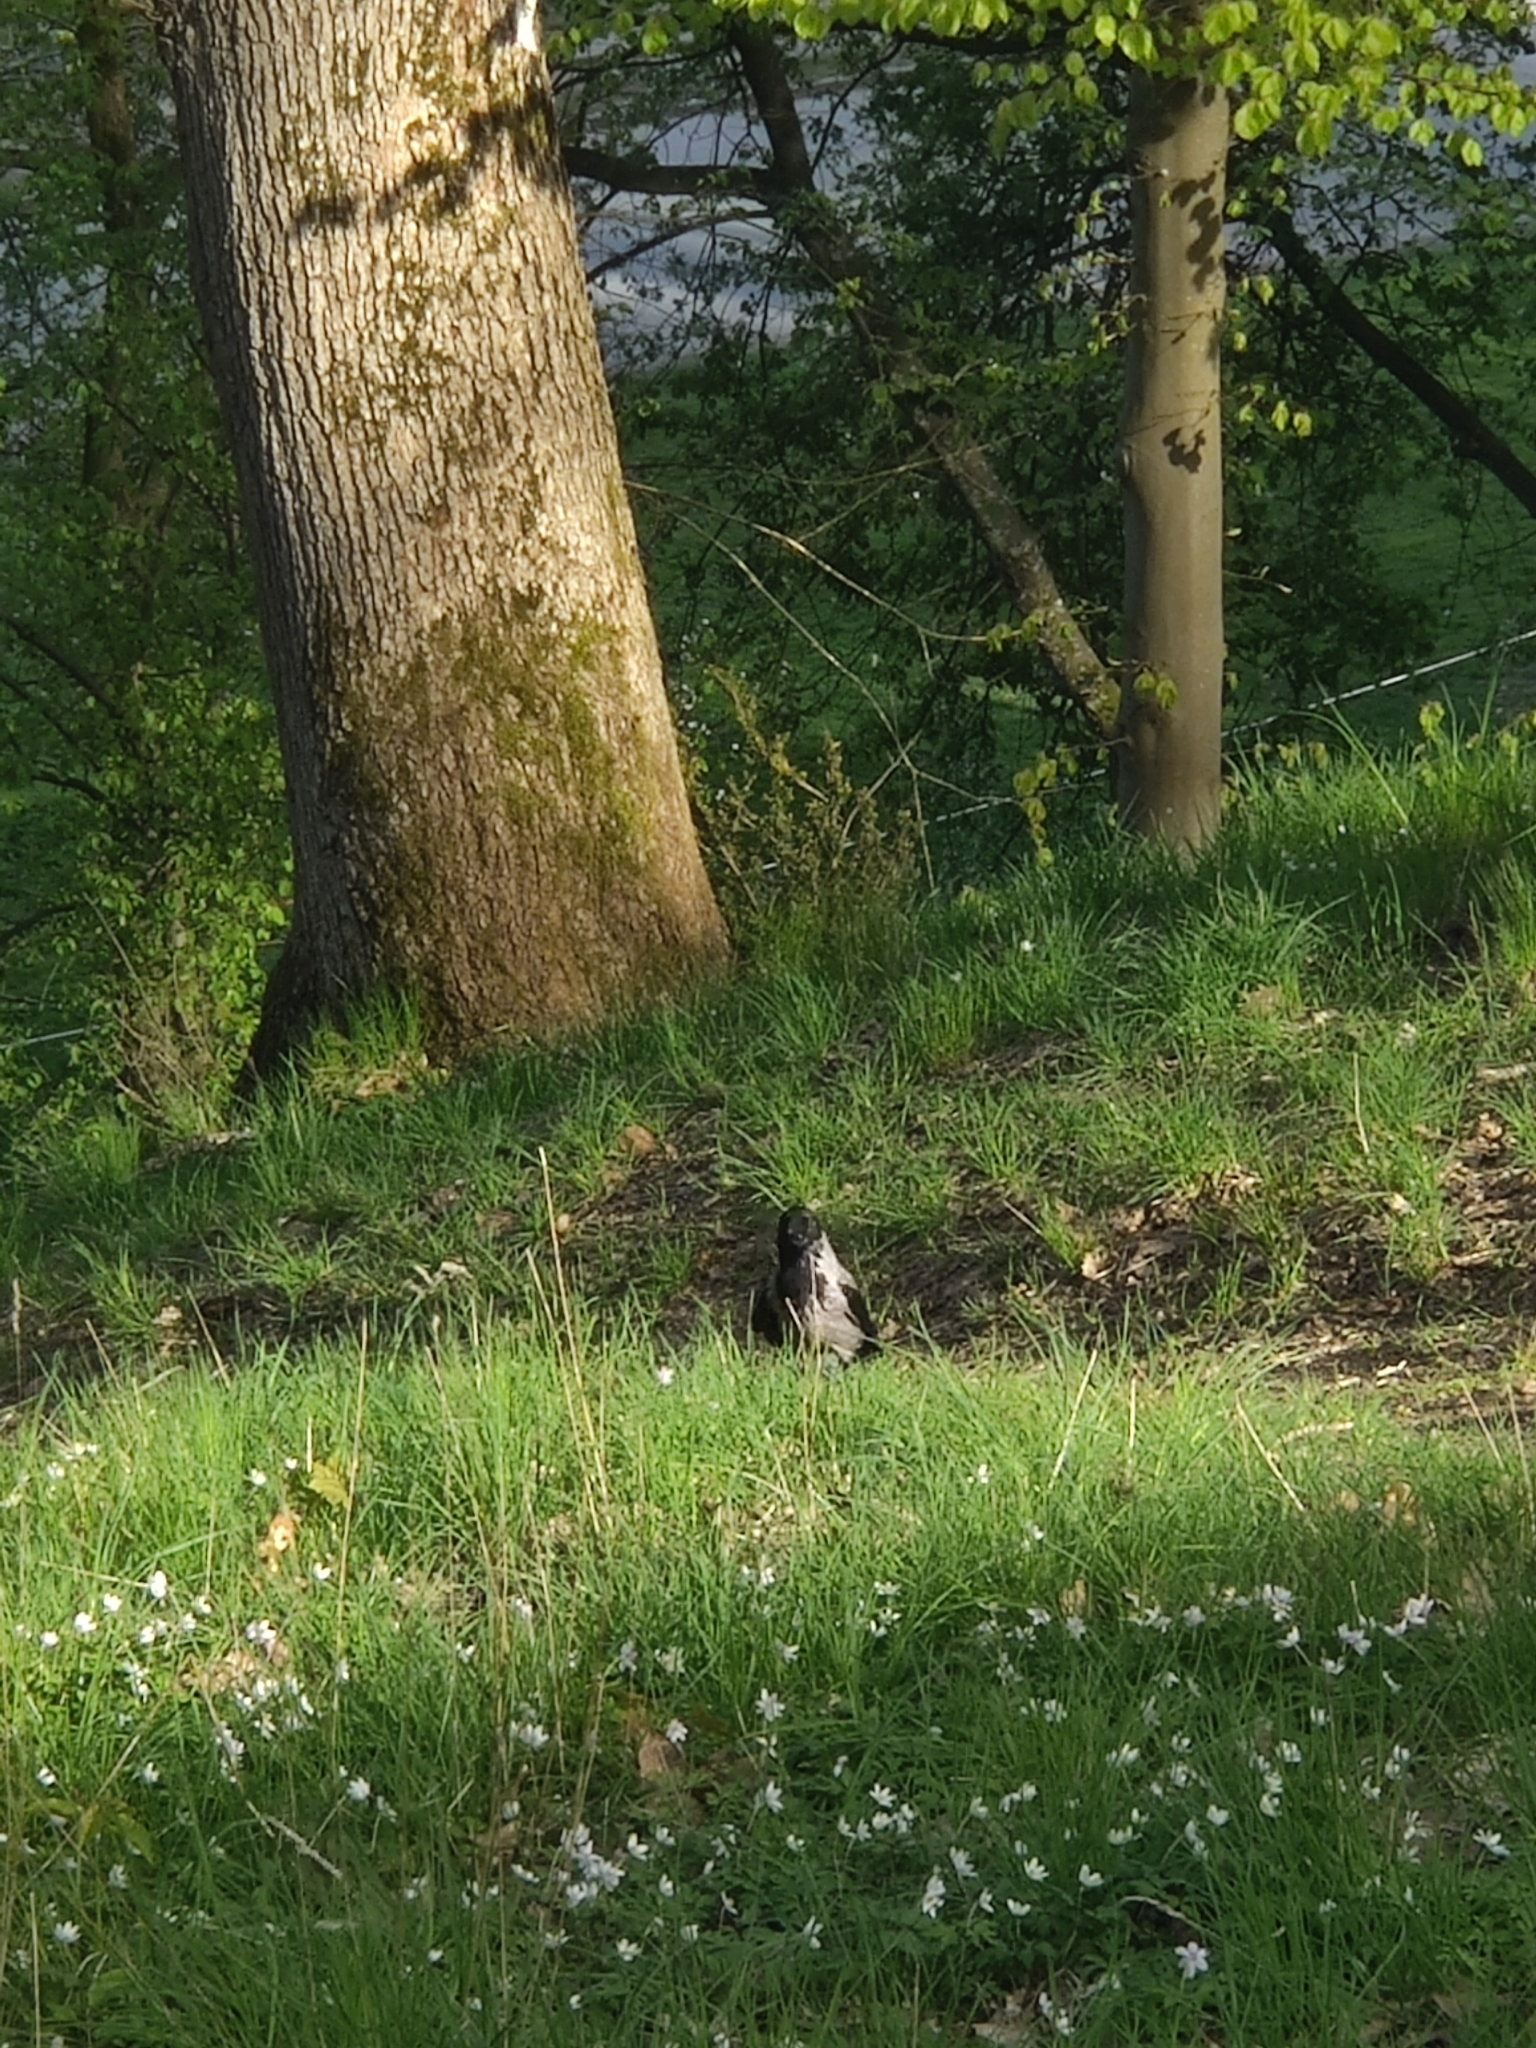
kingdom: Animalia
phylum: Chordata
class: Aves
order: Passeriformes
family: Corvidae
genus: Corvus
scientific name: Corvus cornix
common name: Hooded crow
